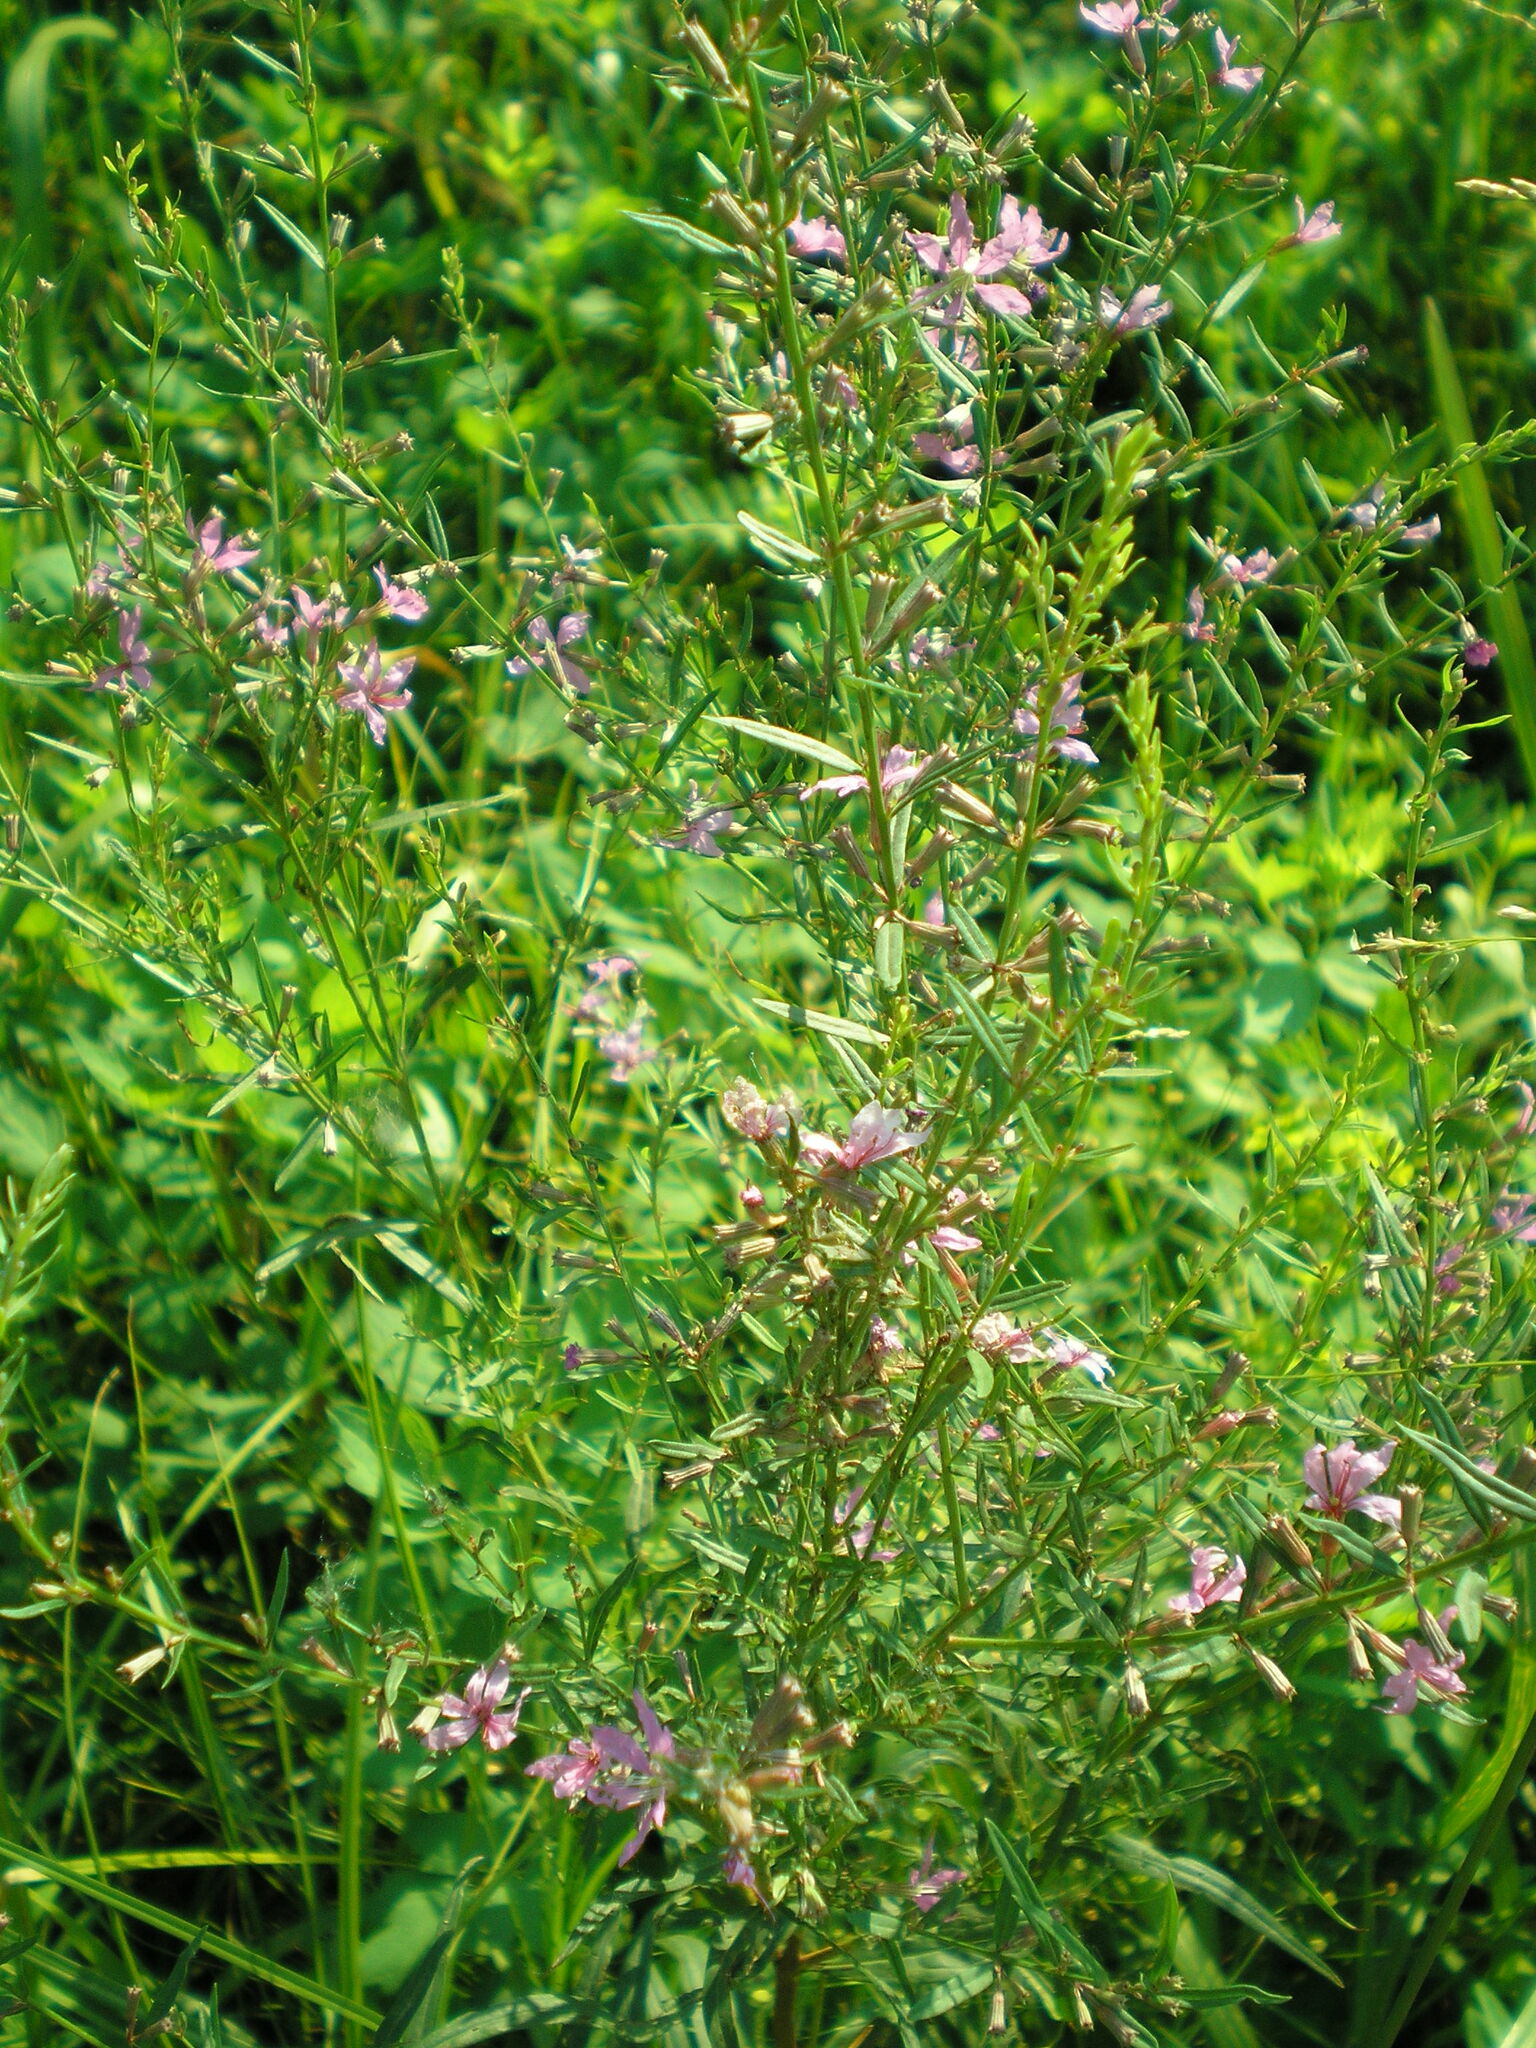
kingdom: Plantae
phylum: Tracheophyta
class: Magnoliopsida
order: Myrtales
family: Lythraceae
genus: Lythrum
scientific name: Lythrum virgatum
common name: European wand loosestrife
